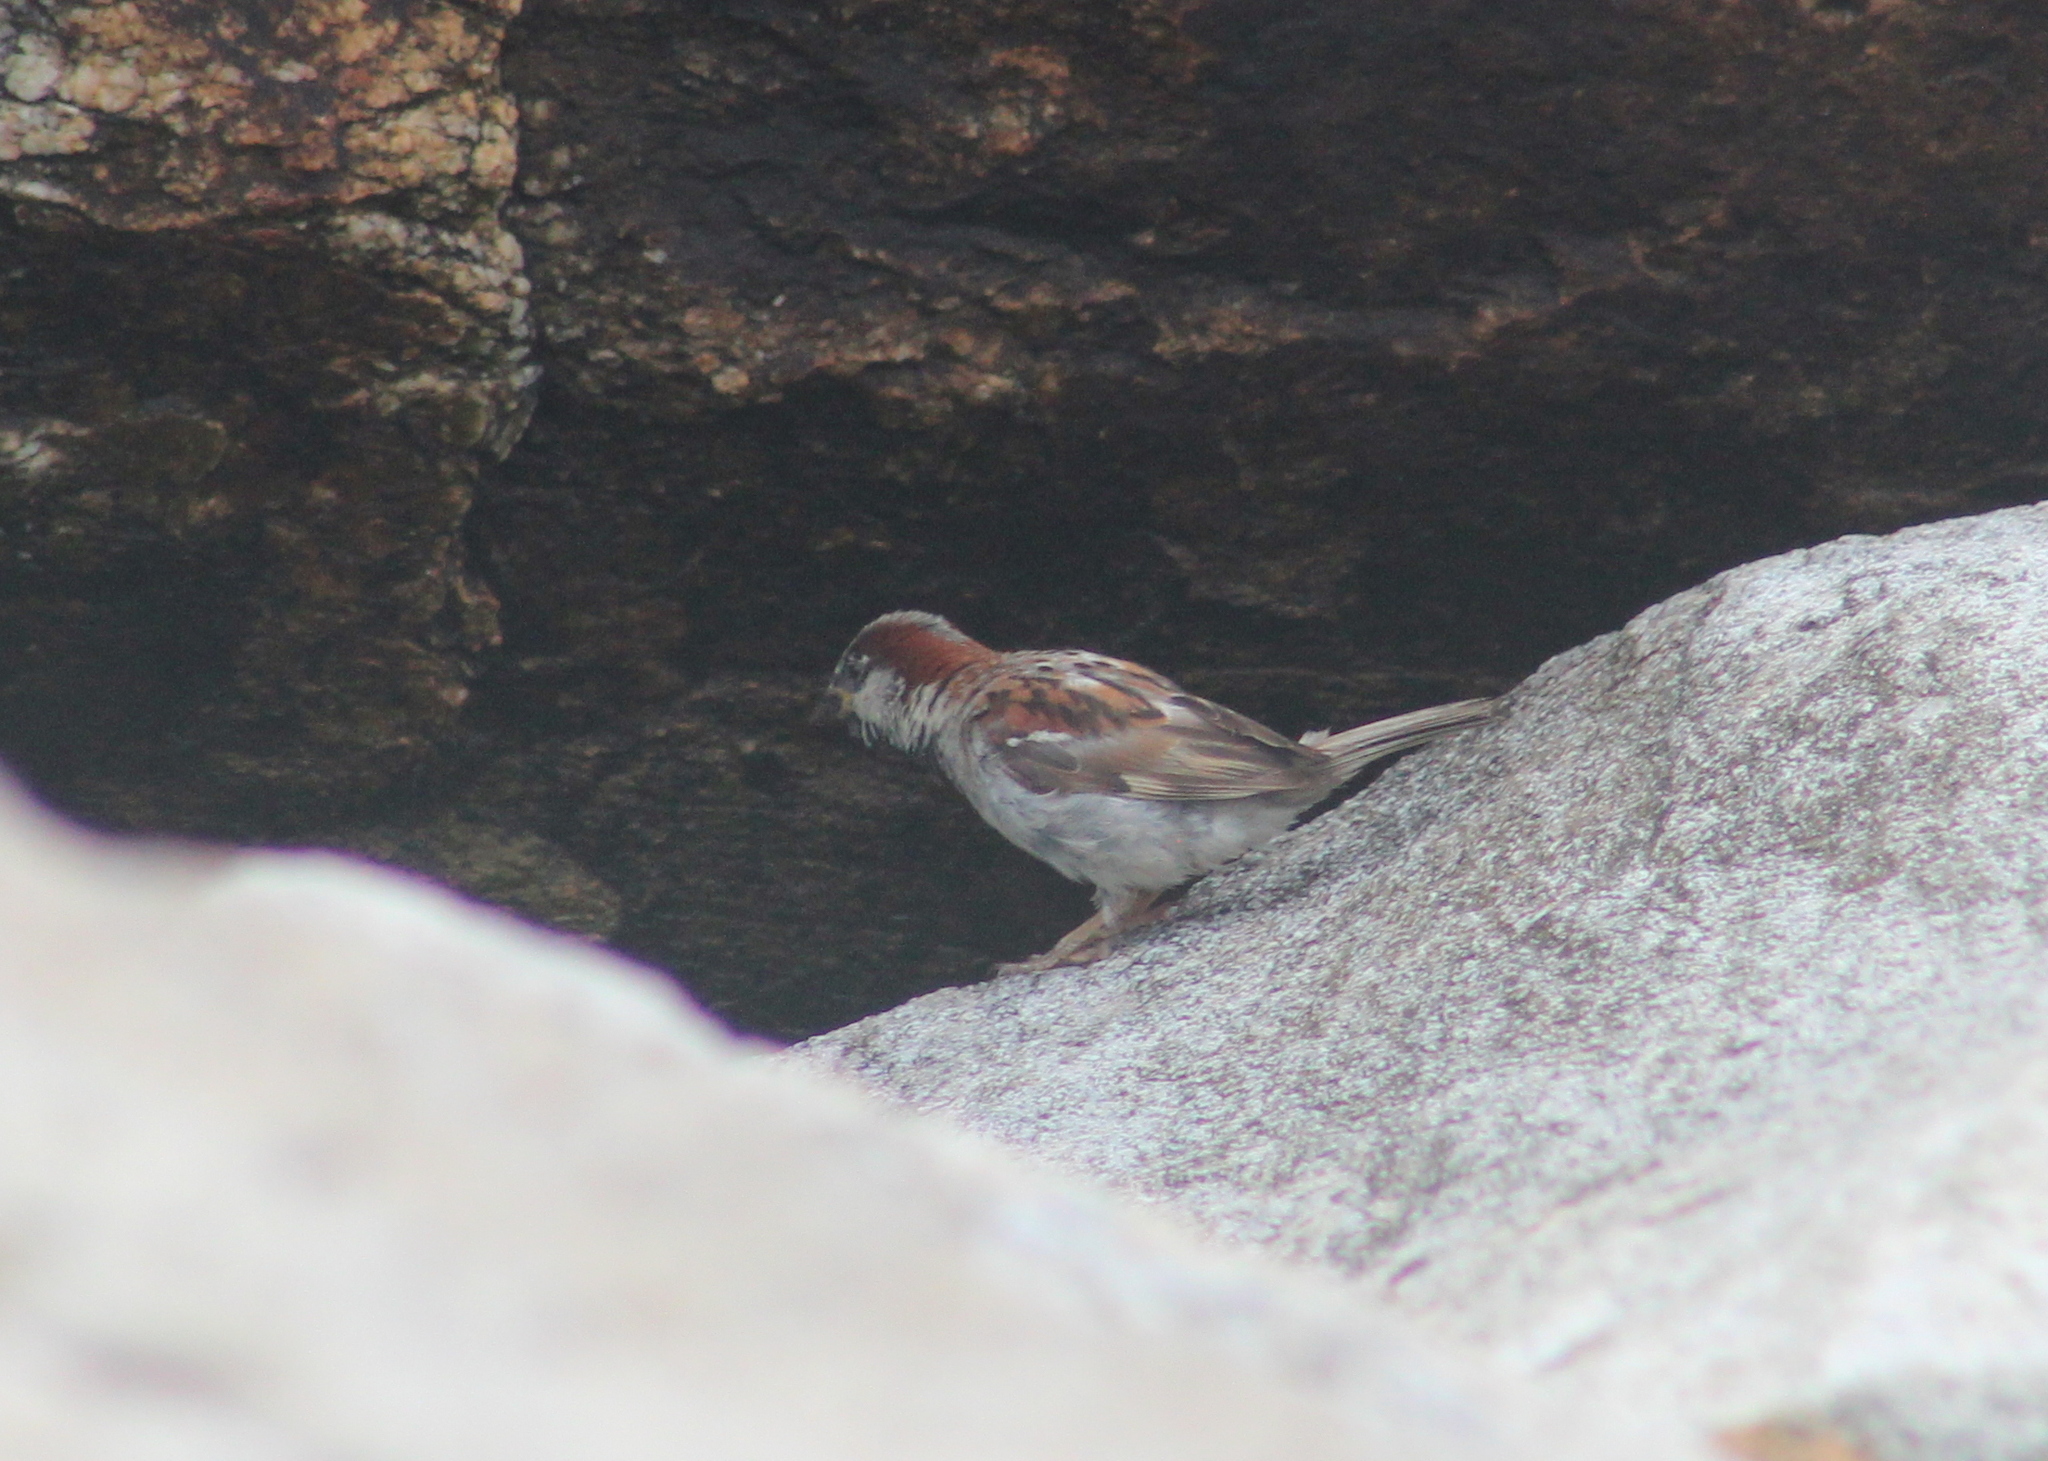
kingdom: Animalia
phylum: Chordata
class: Aves
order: Passeriformes
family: Passeridae
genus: Passer
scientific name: Passer domesticus
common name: House sparrow
